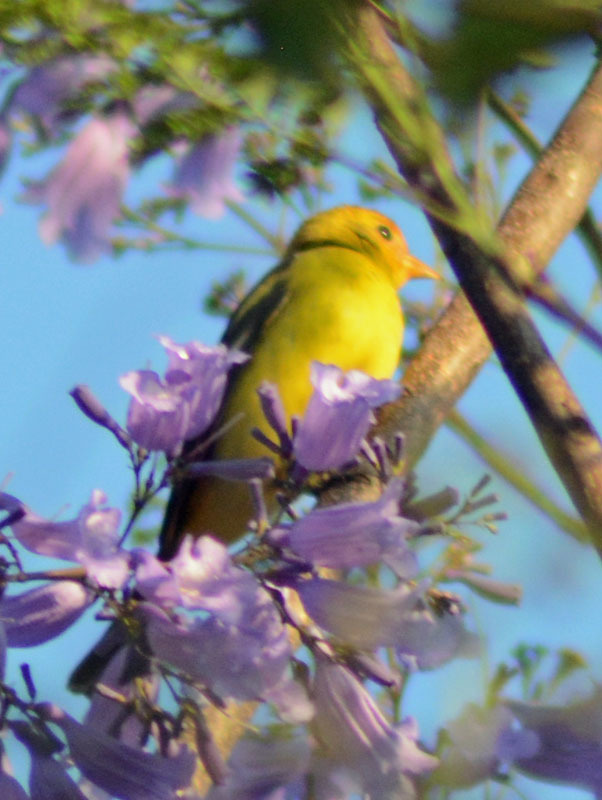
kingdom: Animalia
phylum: Chordata
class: Aves
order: Passeriformes
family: Cardinalidae
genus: Piranga
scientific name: Piranga ludoviciana
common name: Western tanager
